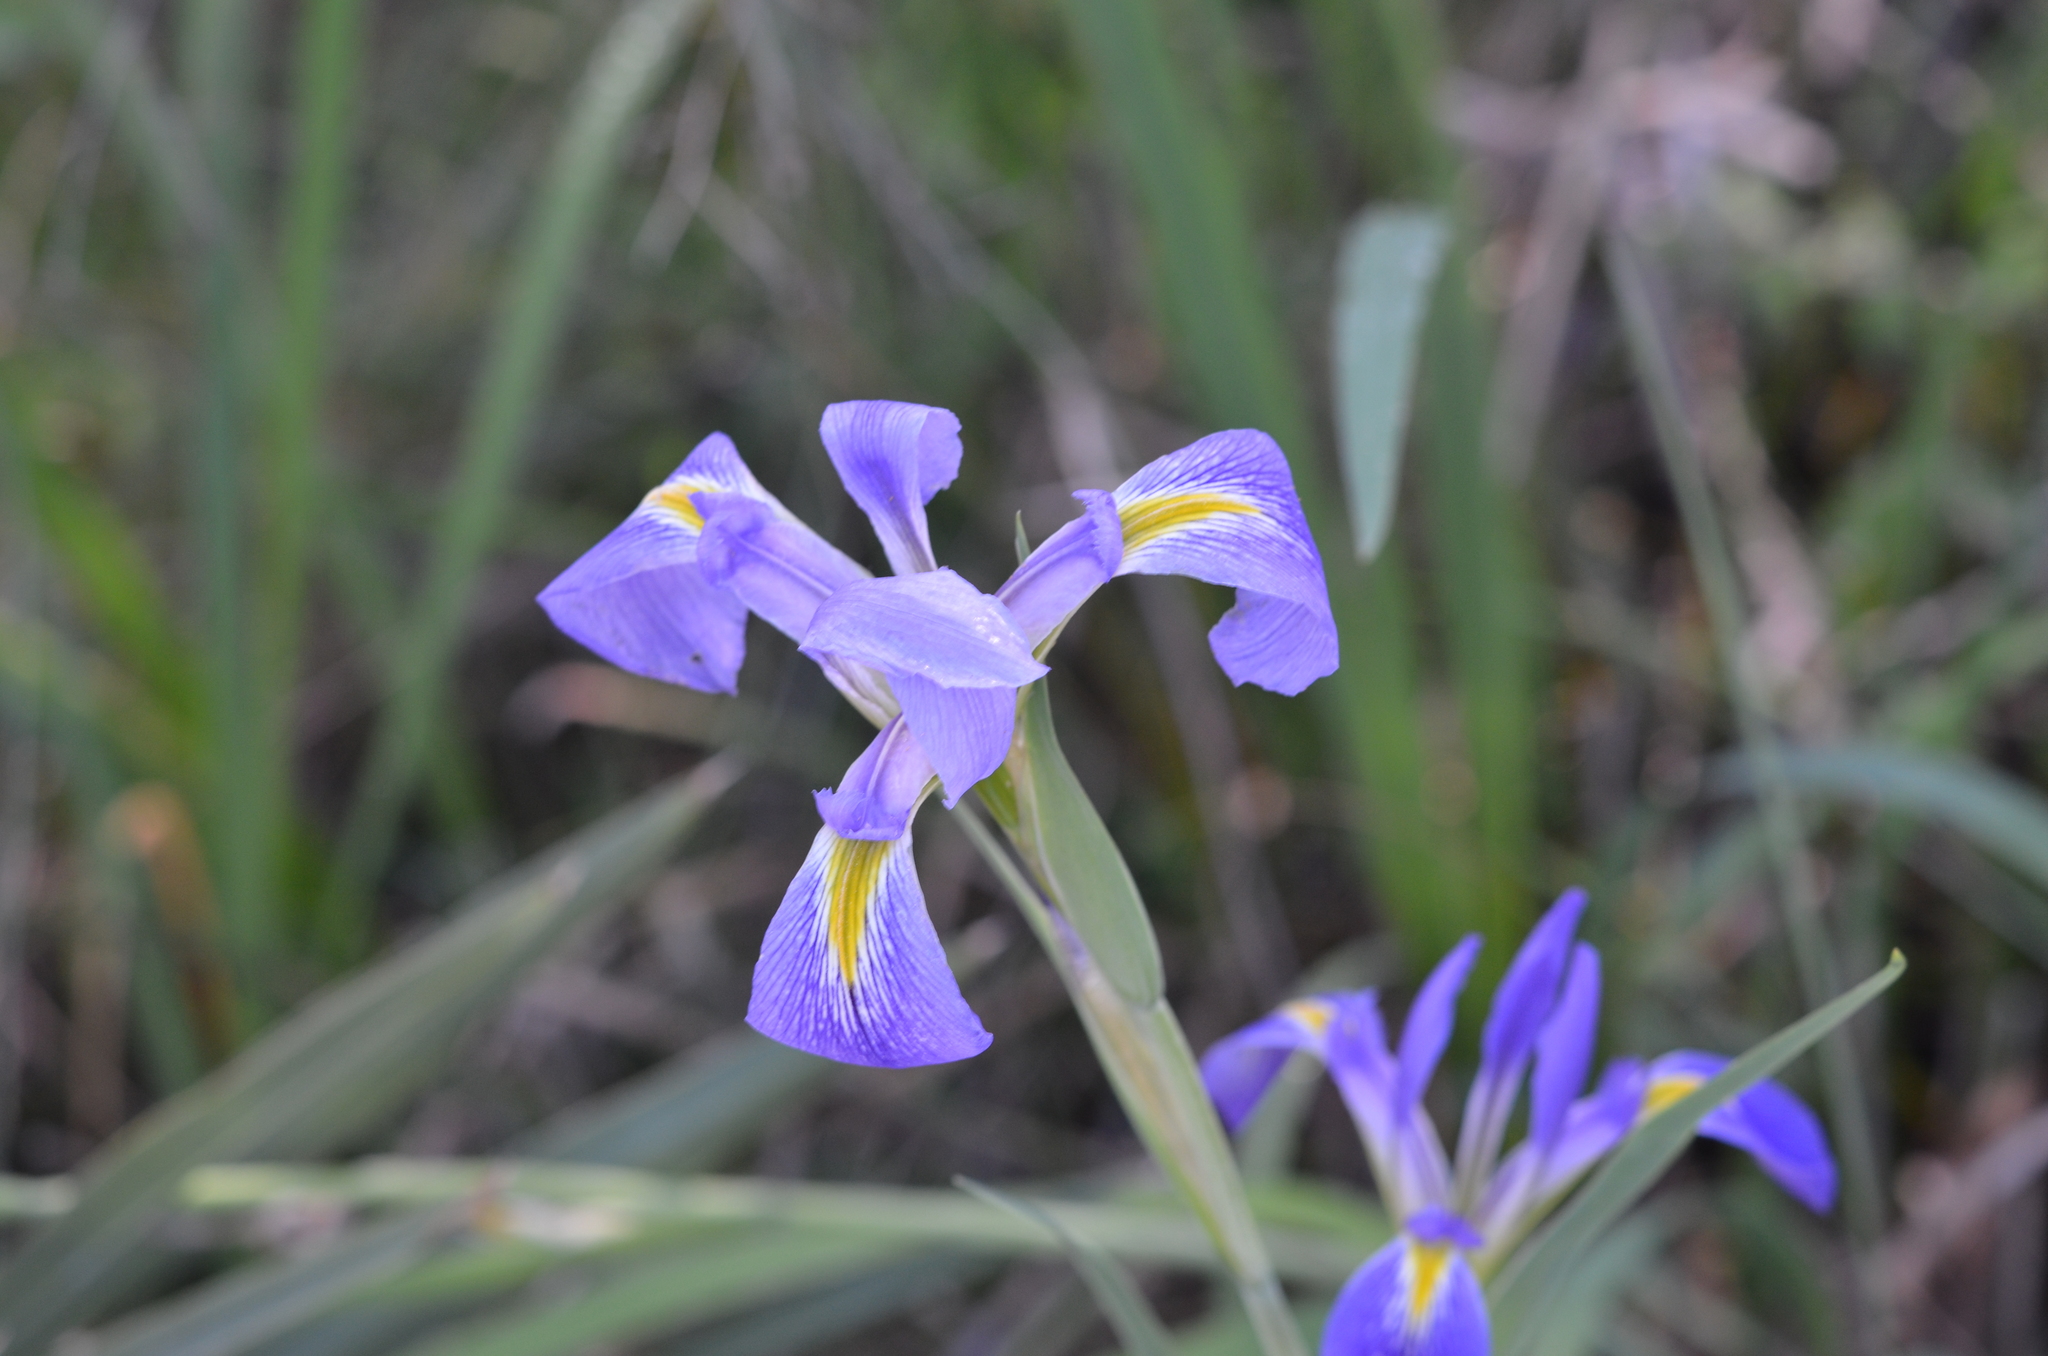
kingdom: Plantae
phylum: Tracheophyta
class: Liliopsida
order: Asparagales
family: Iridaceae
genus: Iris
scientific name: Iris giganticaerulea
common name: Giant blue iris
